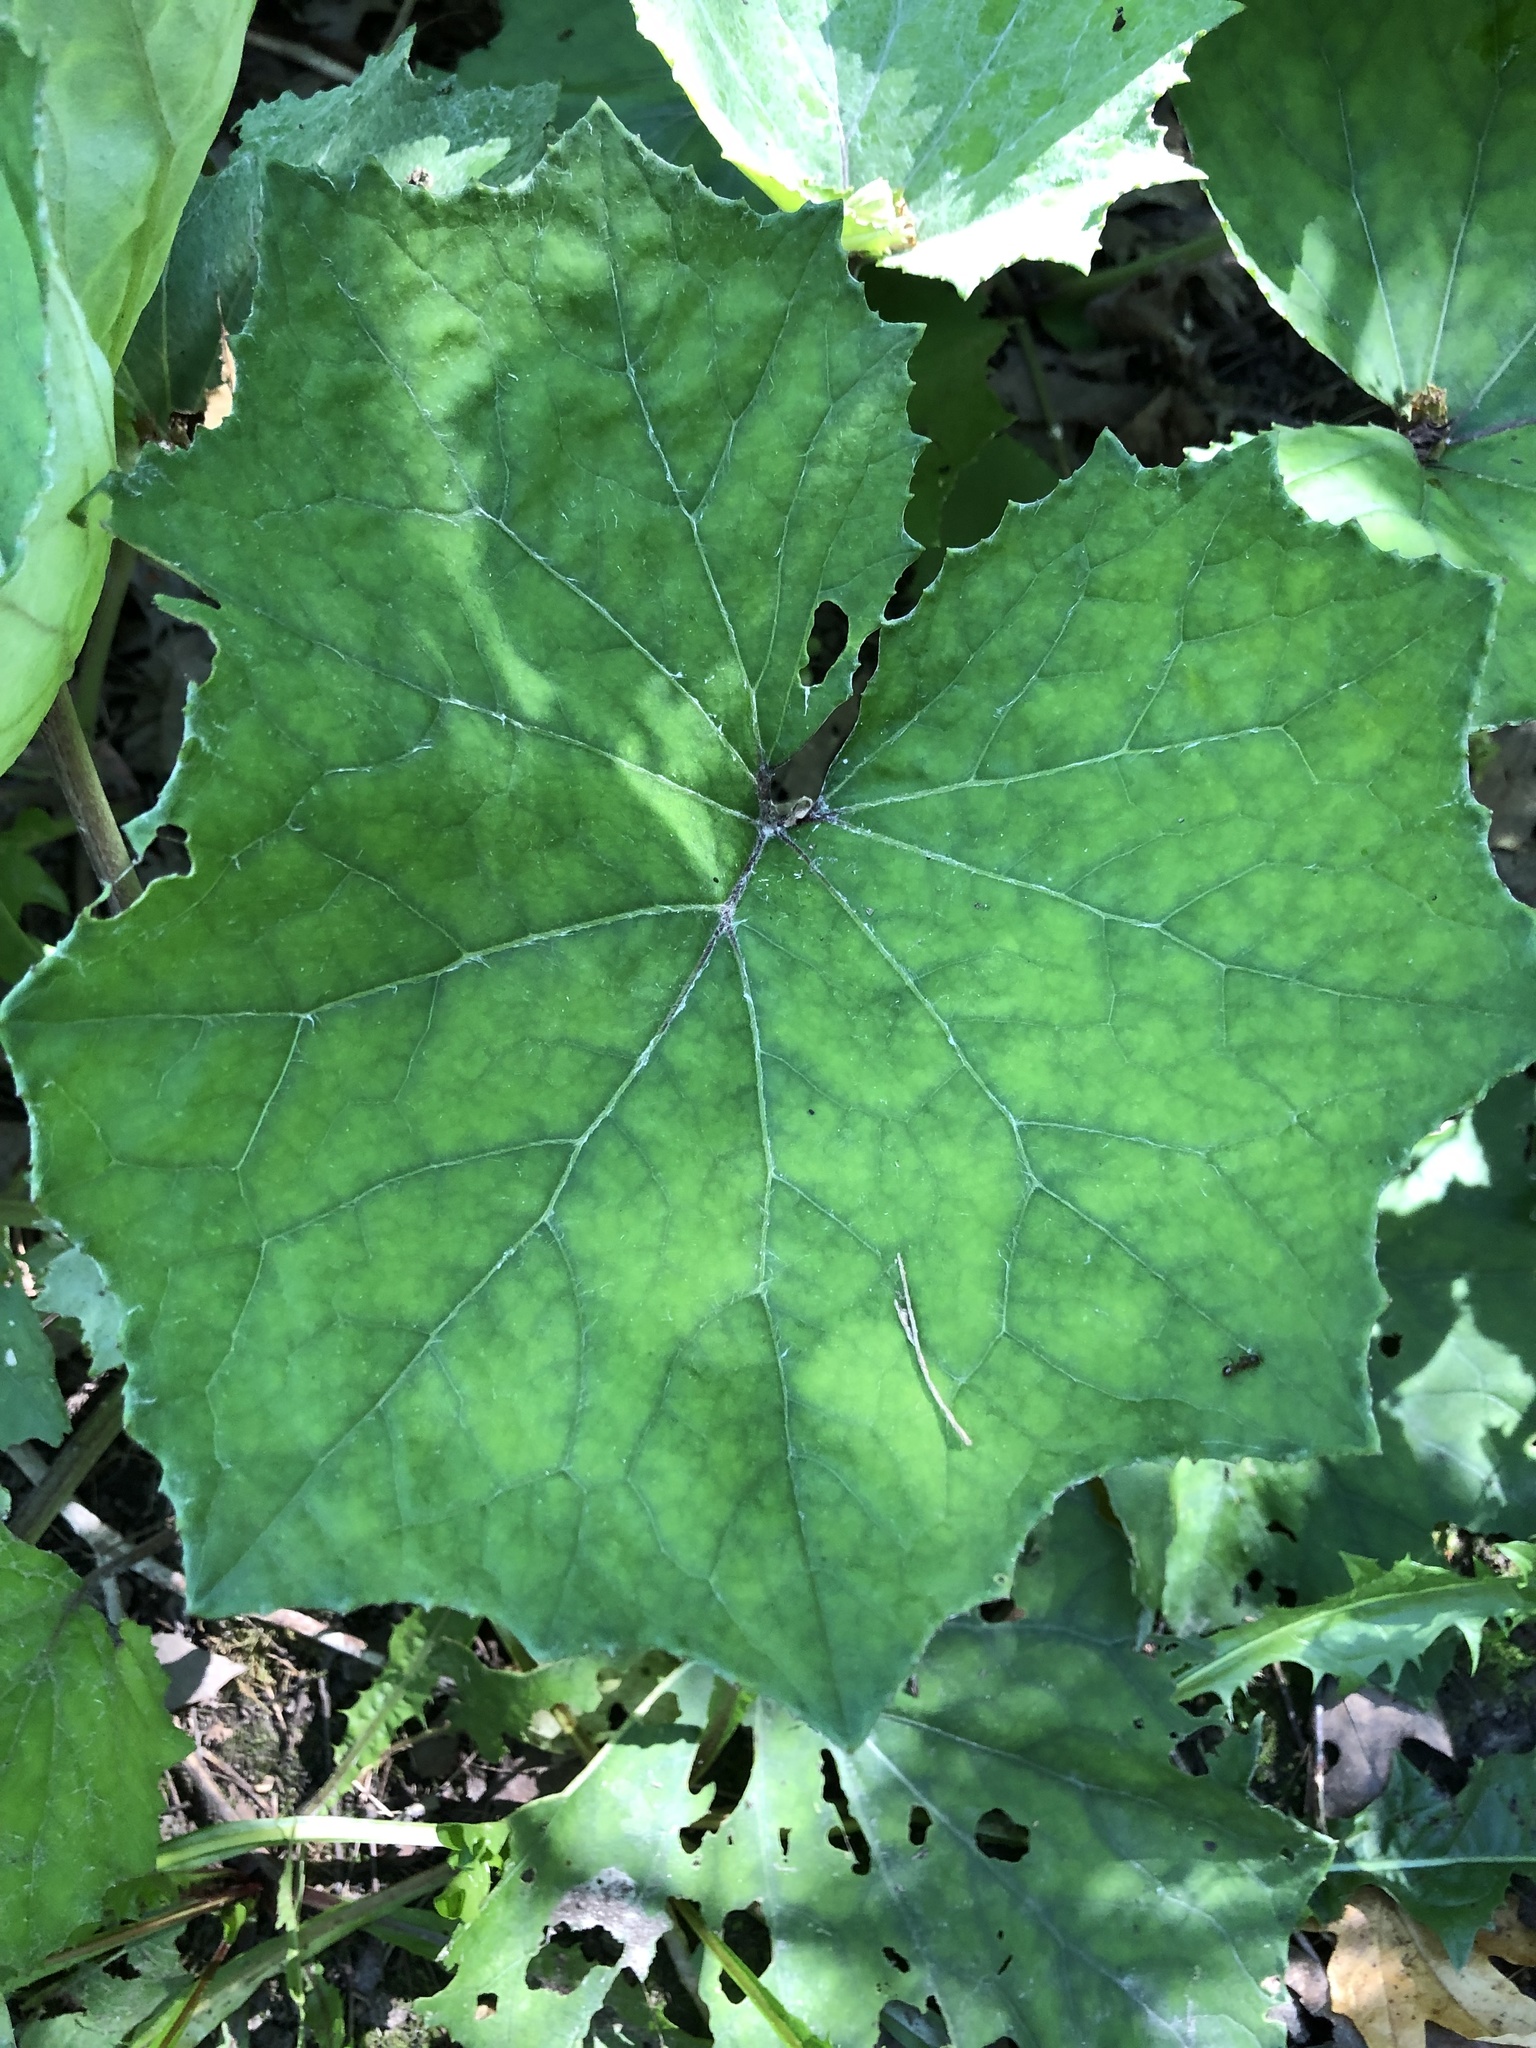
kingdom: Plantae
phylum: Tracheophyta
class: Magnoliopsida
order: Asterales
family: Asteraceae
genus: Tussilago
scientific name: Tussilago farfara
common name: Coltsfoot
